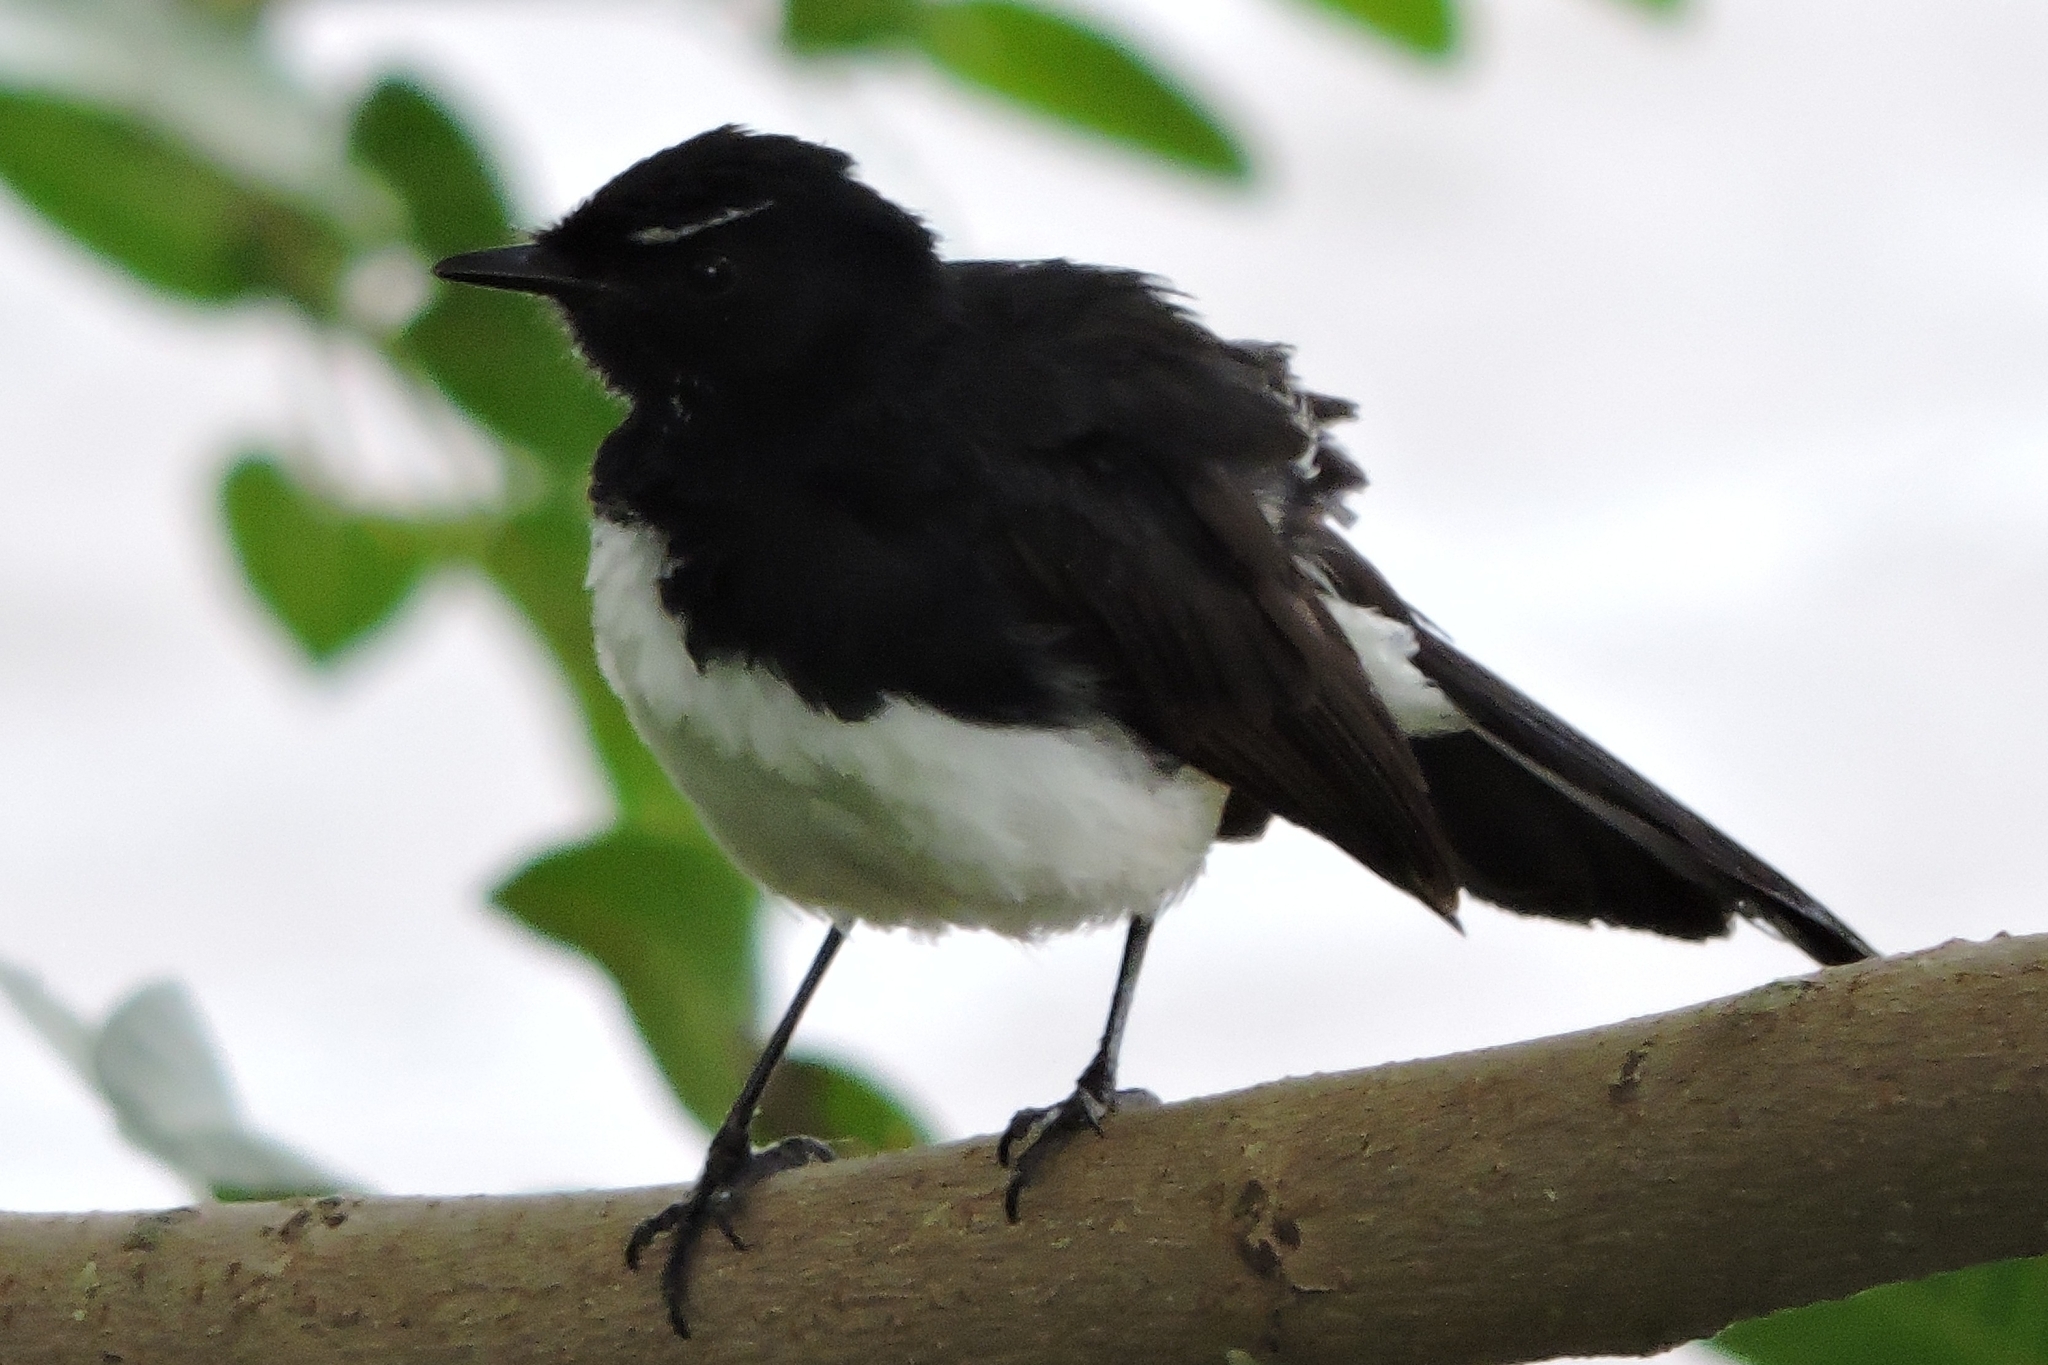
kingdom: Animalia
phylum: Chordata
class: Aves
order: Passeriformes
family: Rhipiduridae
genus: Rhipidura
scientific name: Rhipidura leucophrys
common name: Willie wagtail
